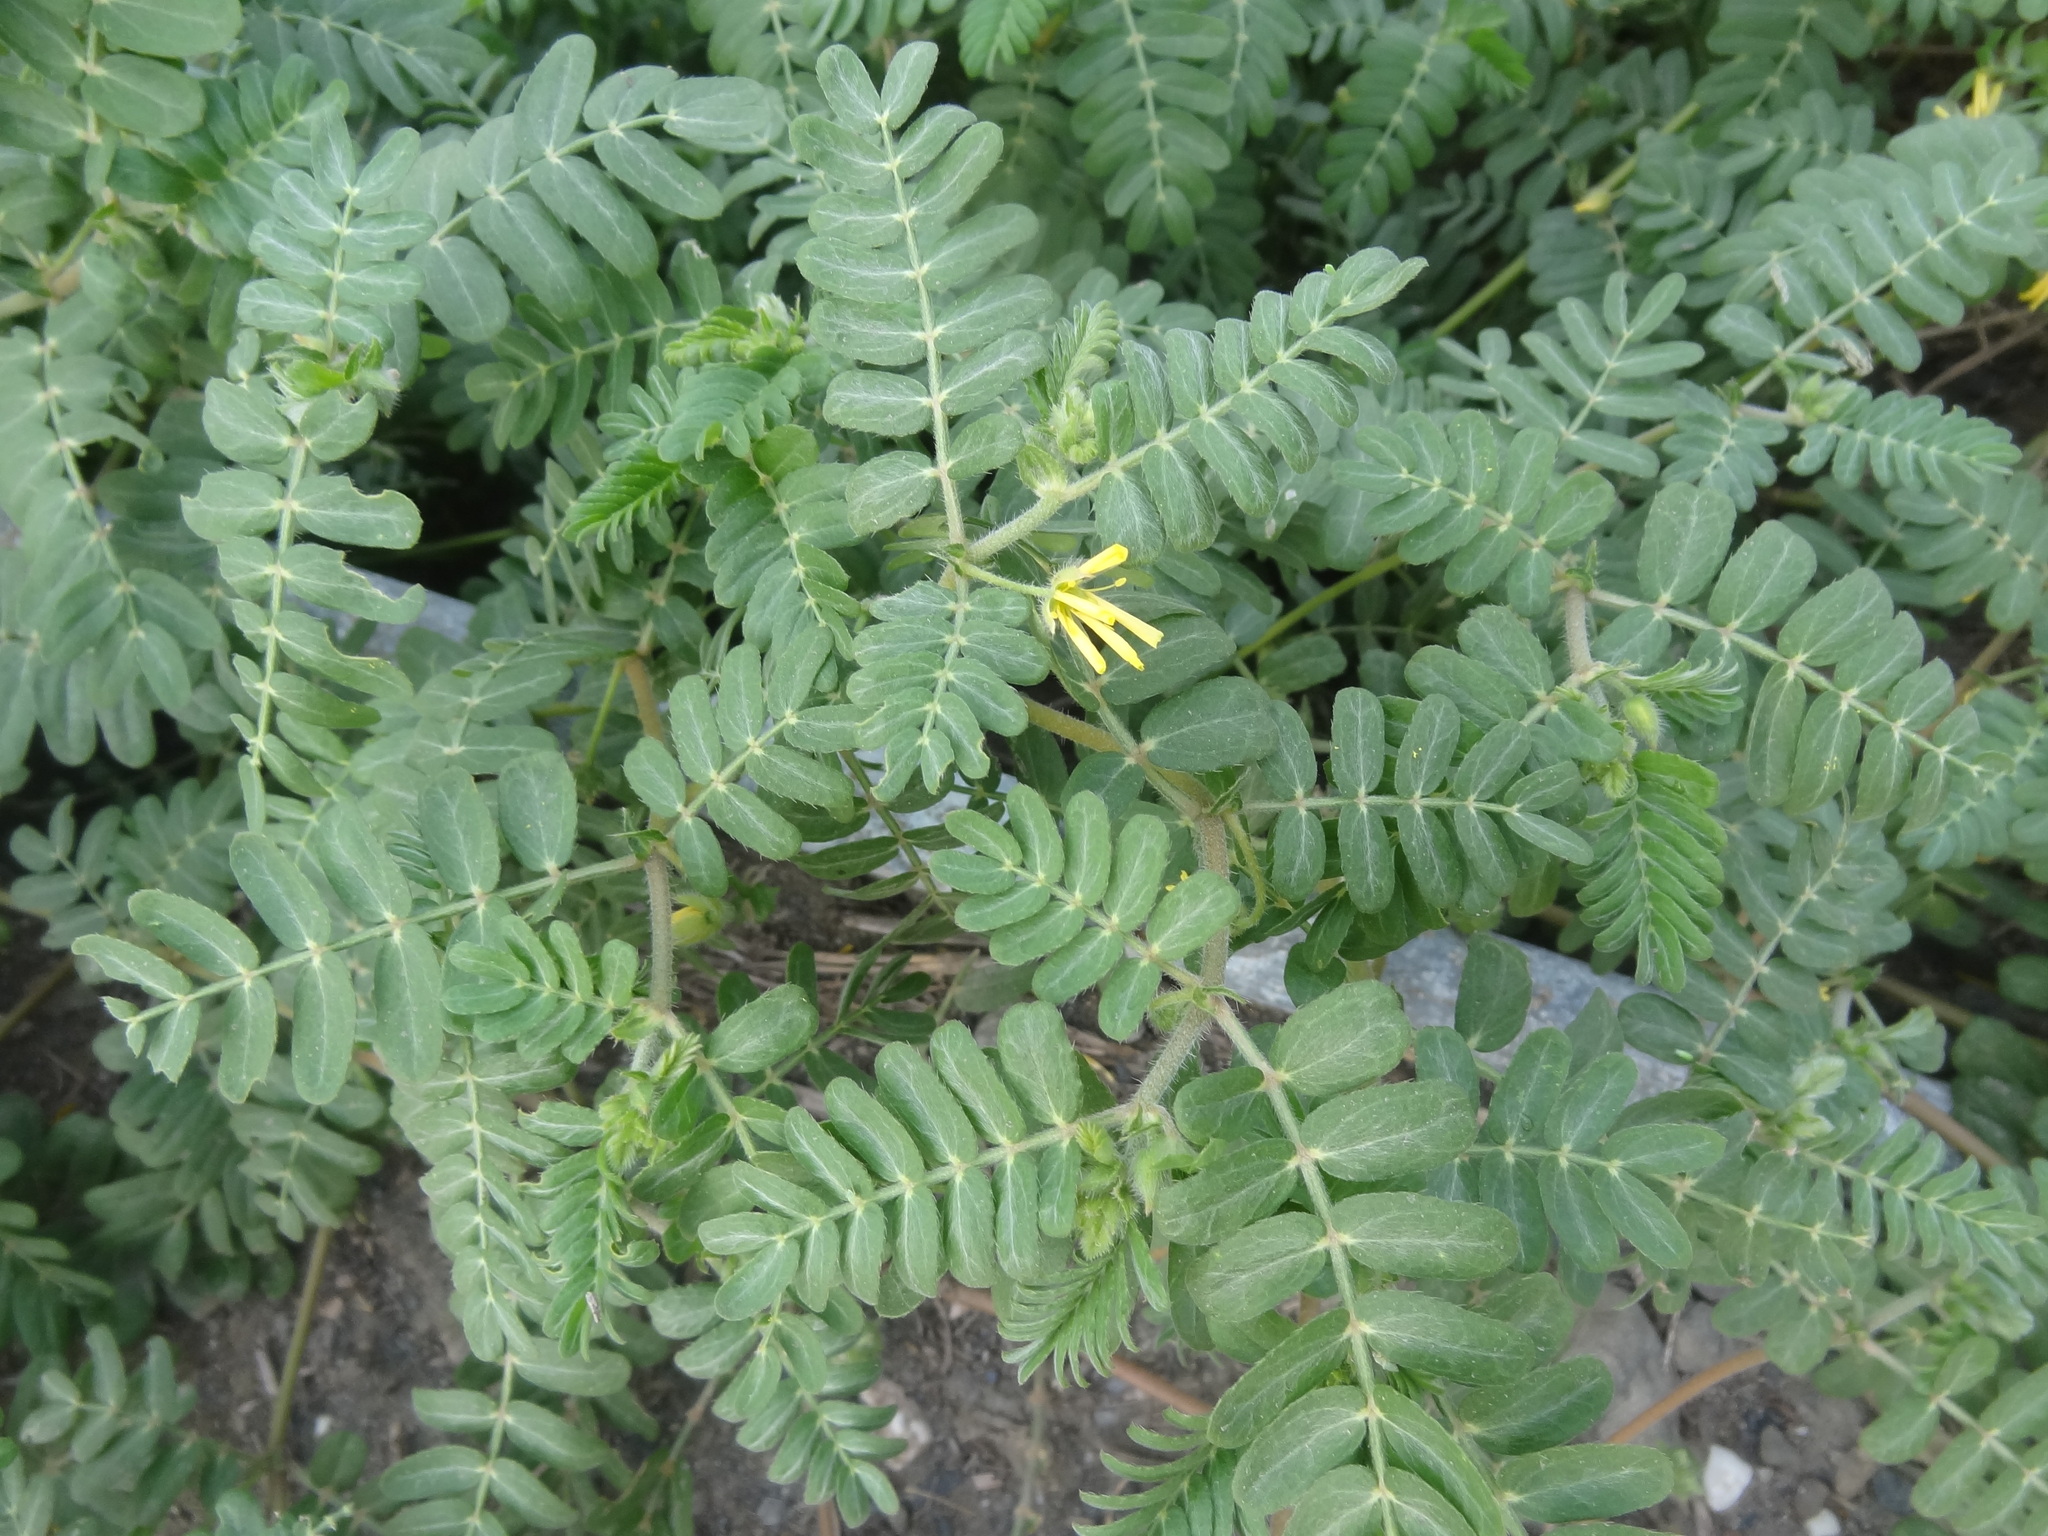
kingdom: Plantae
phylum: Tracheophyta
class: Magnoliopsida
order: Zygophyllales
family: Zygophyllaceae
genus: Tribulus
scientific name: Tribulus cistoides
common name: Jamaican feverplant
